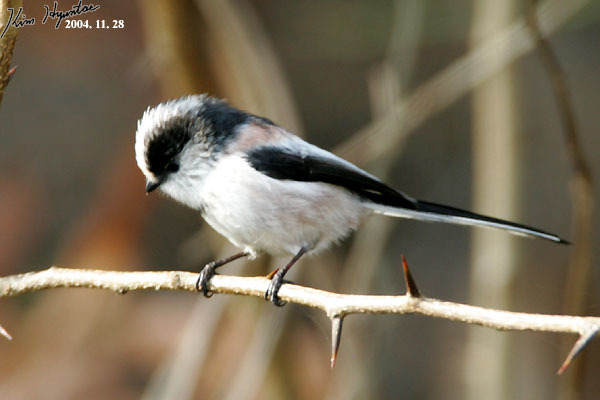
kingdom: Animalia
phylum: Chordata
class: Aves
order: Passeriformes
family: Aegithalidae
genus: Aegithalos
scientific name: Aegithalos caudatus
